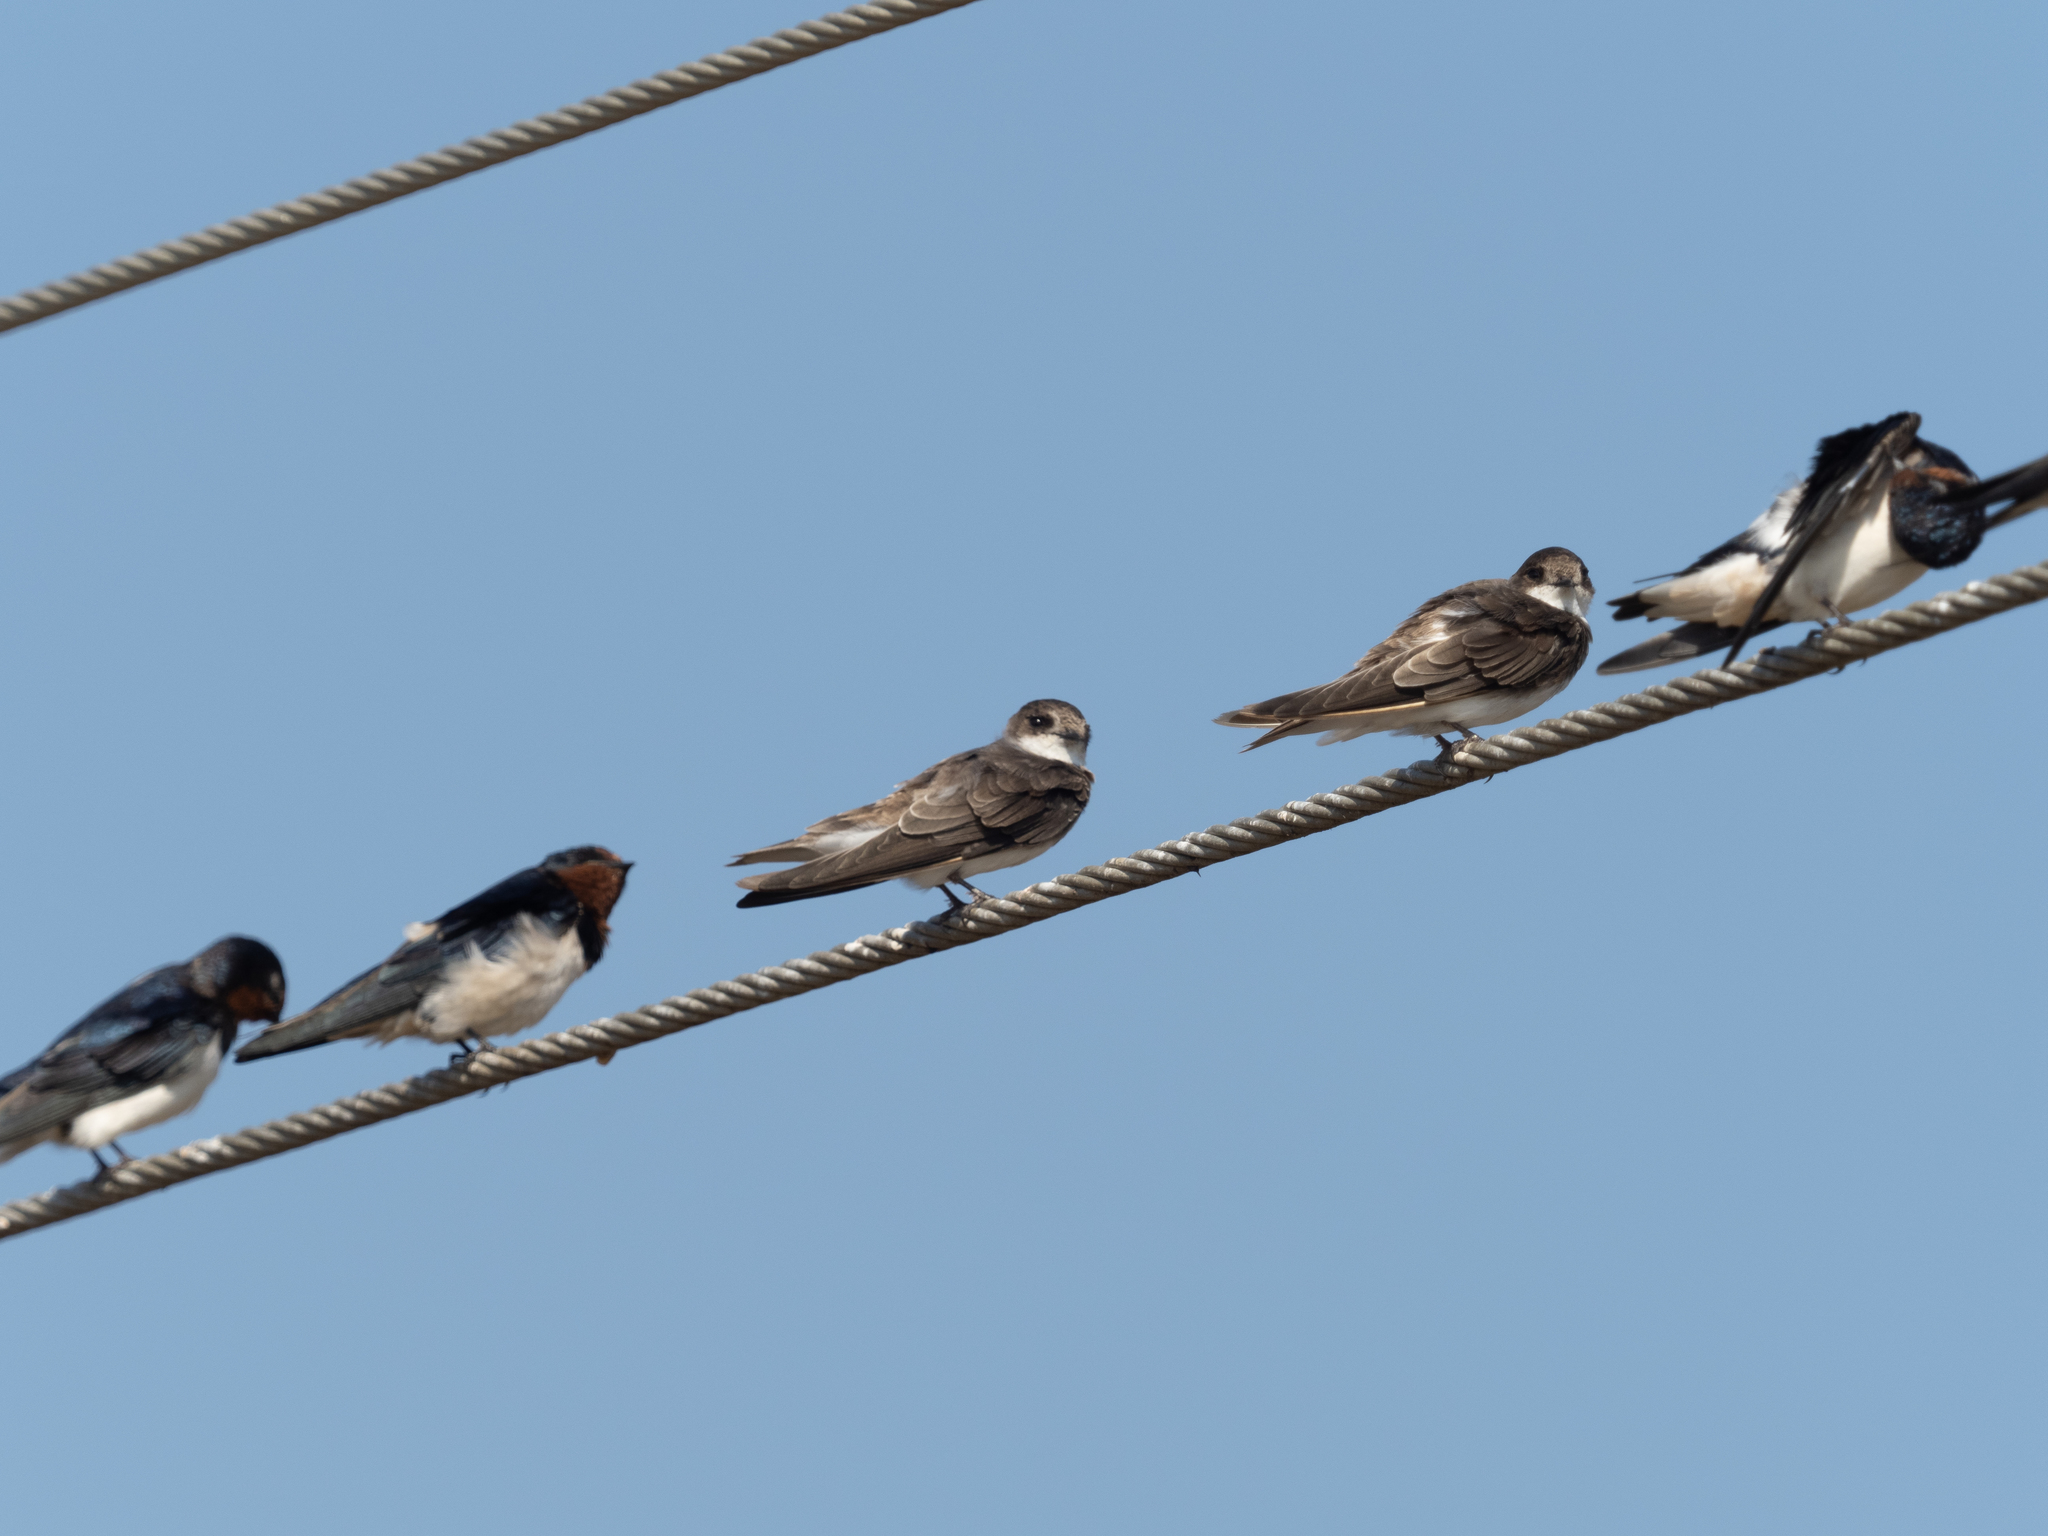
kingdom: Animalia
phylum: Chordata
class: Aves
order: Passeriformes
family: Hirundinidae
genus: Riparia
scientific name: Riparia riparia
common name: Sand martin
